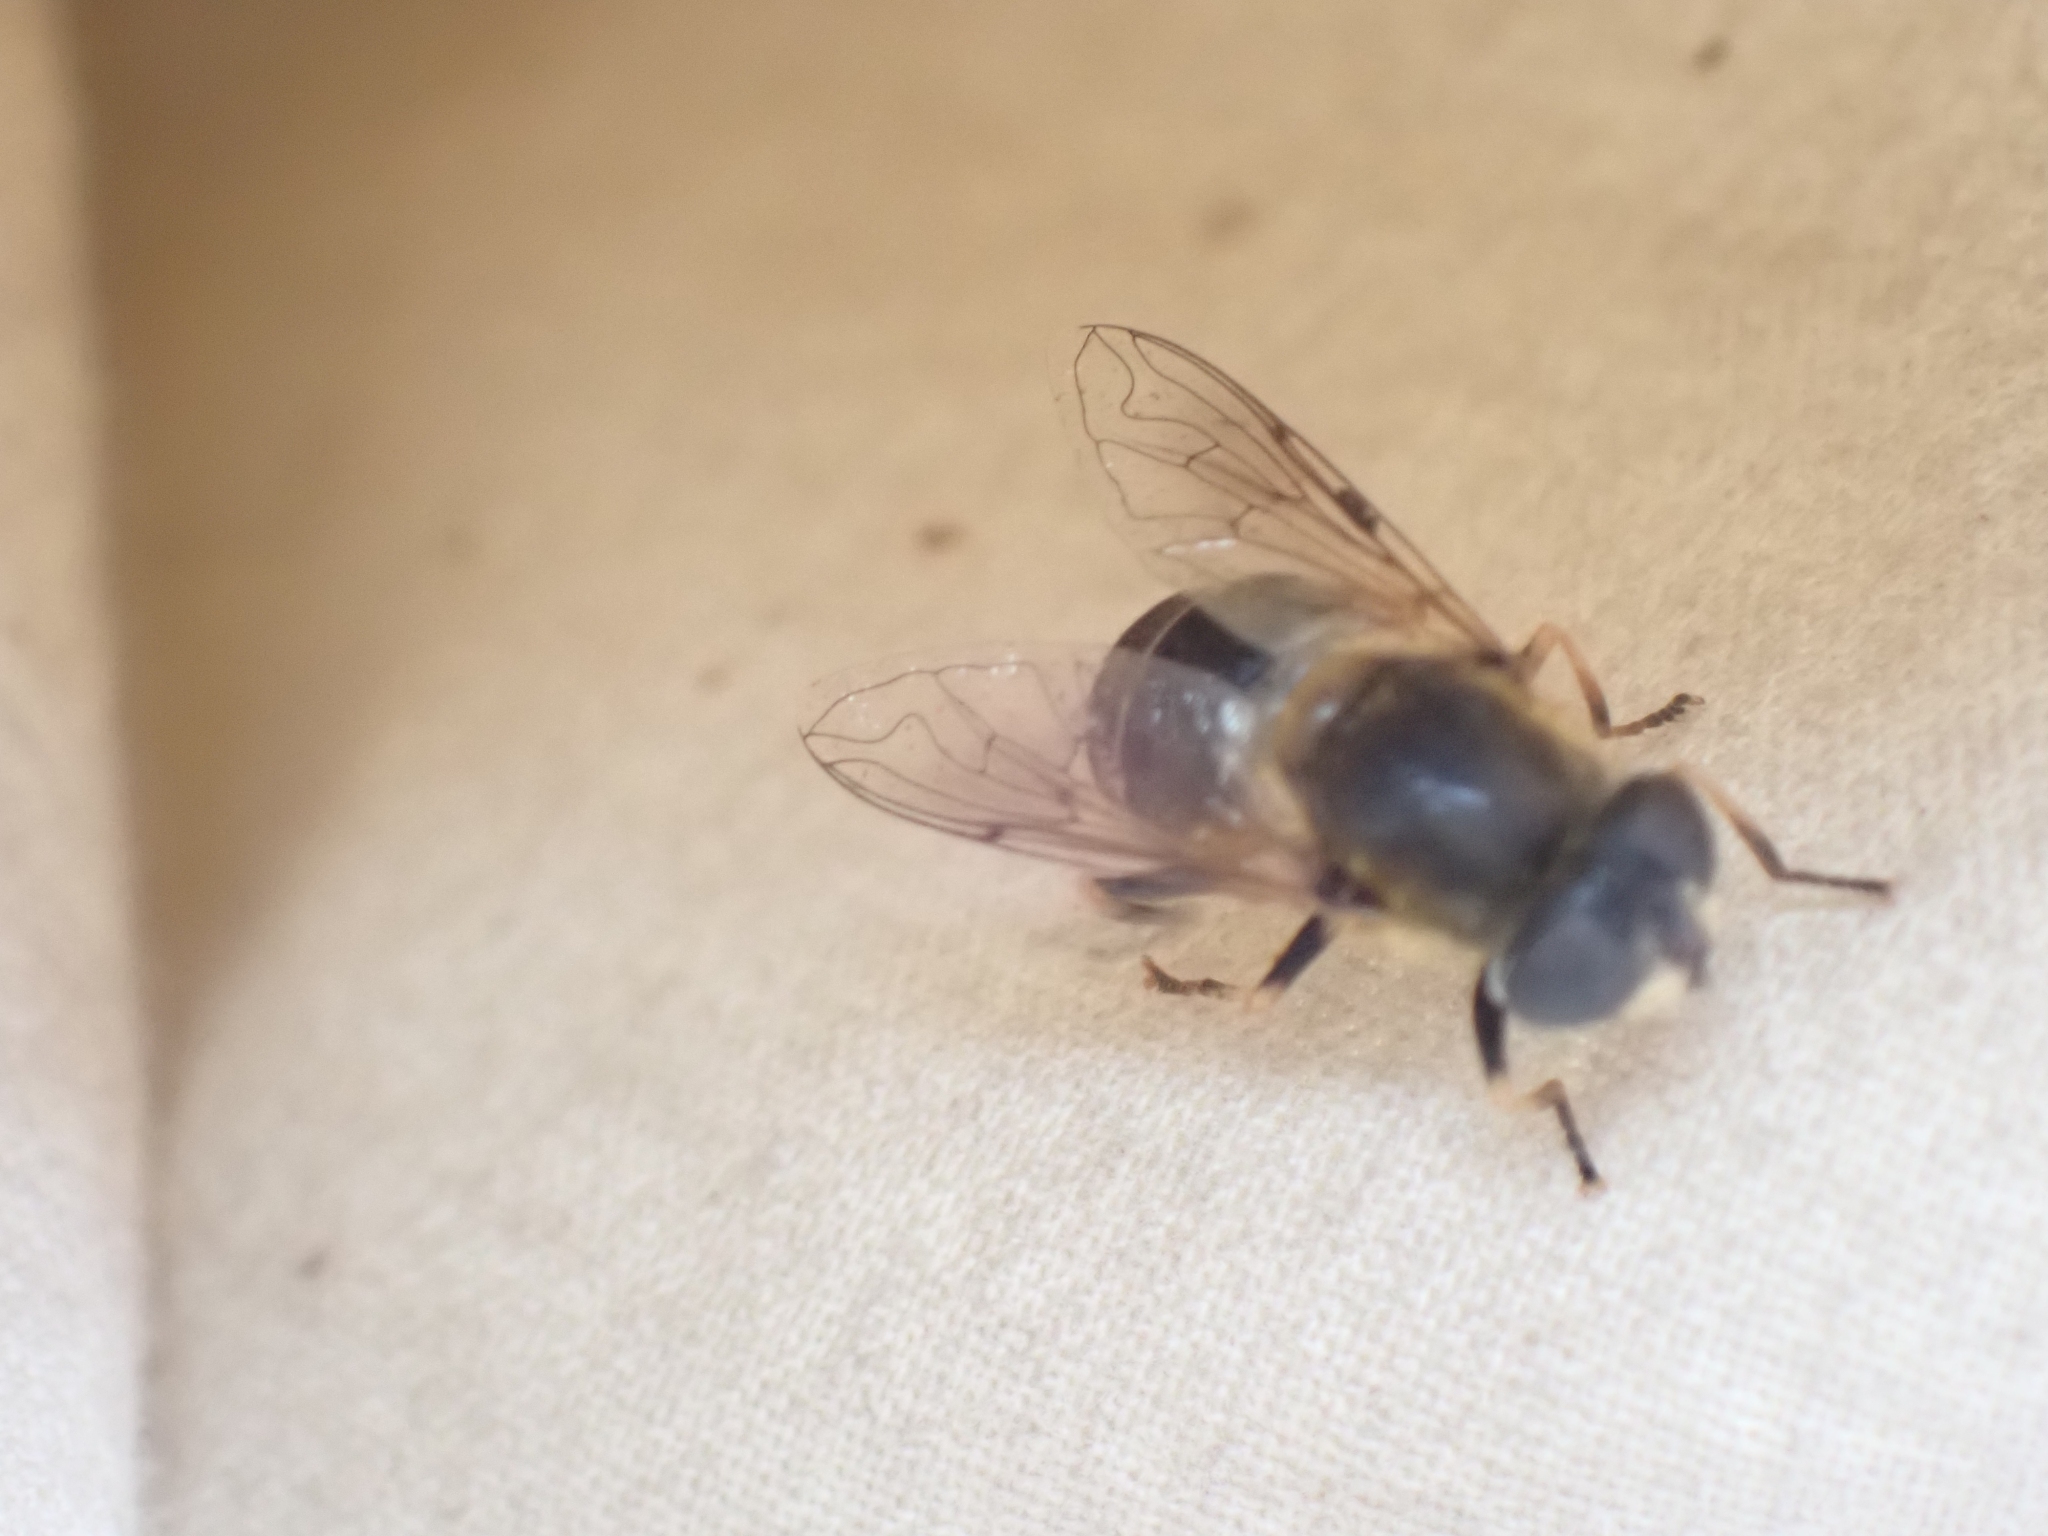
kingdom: Animalia
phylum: Arthropoda
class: Insecta
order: Diptera
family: Syrphidae
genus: Eristalis
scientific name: Eristalis hirta
